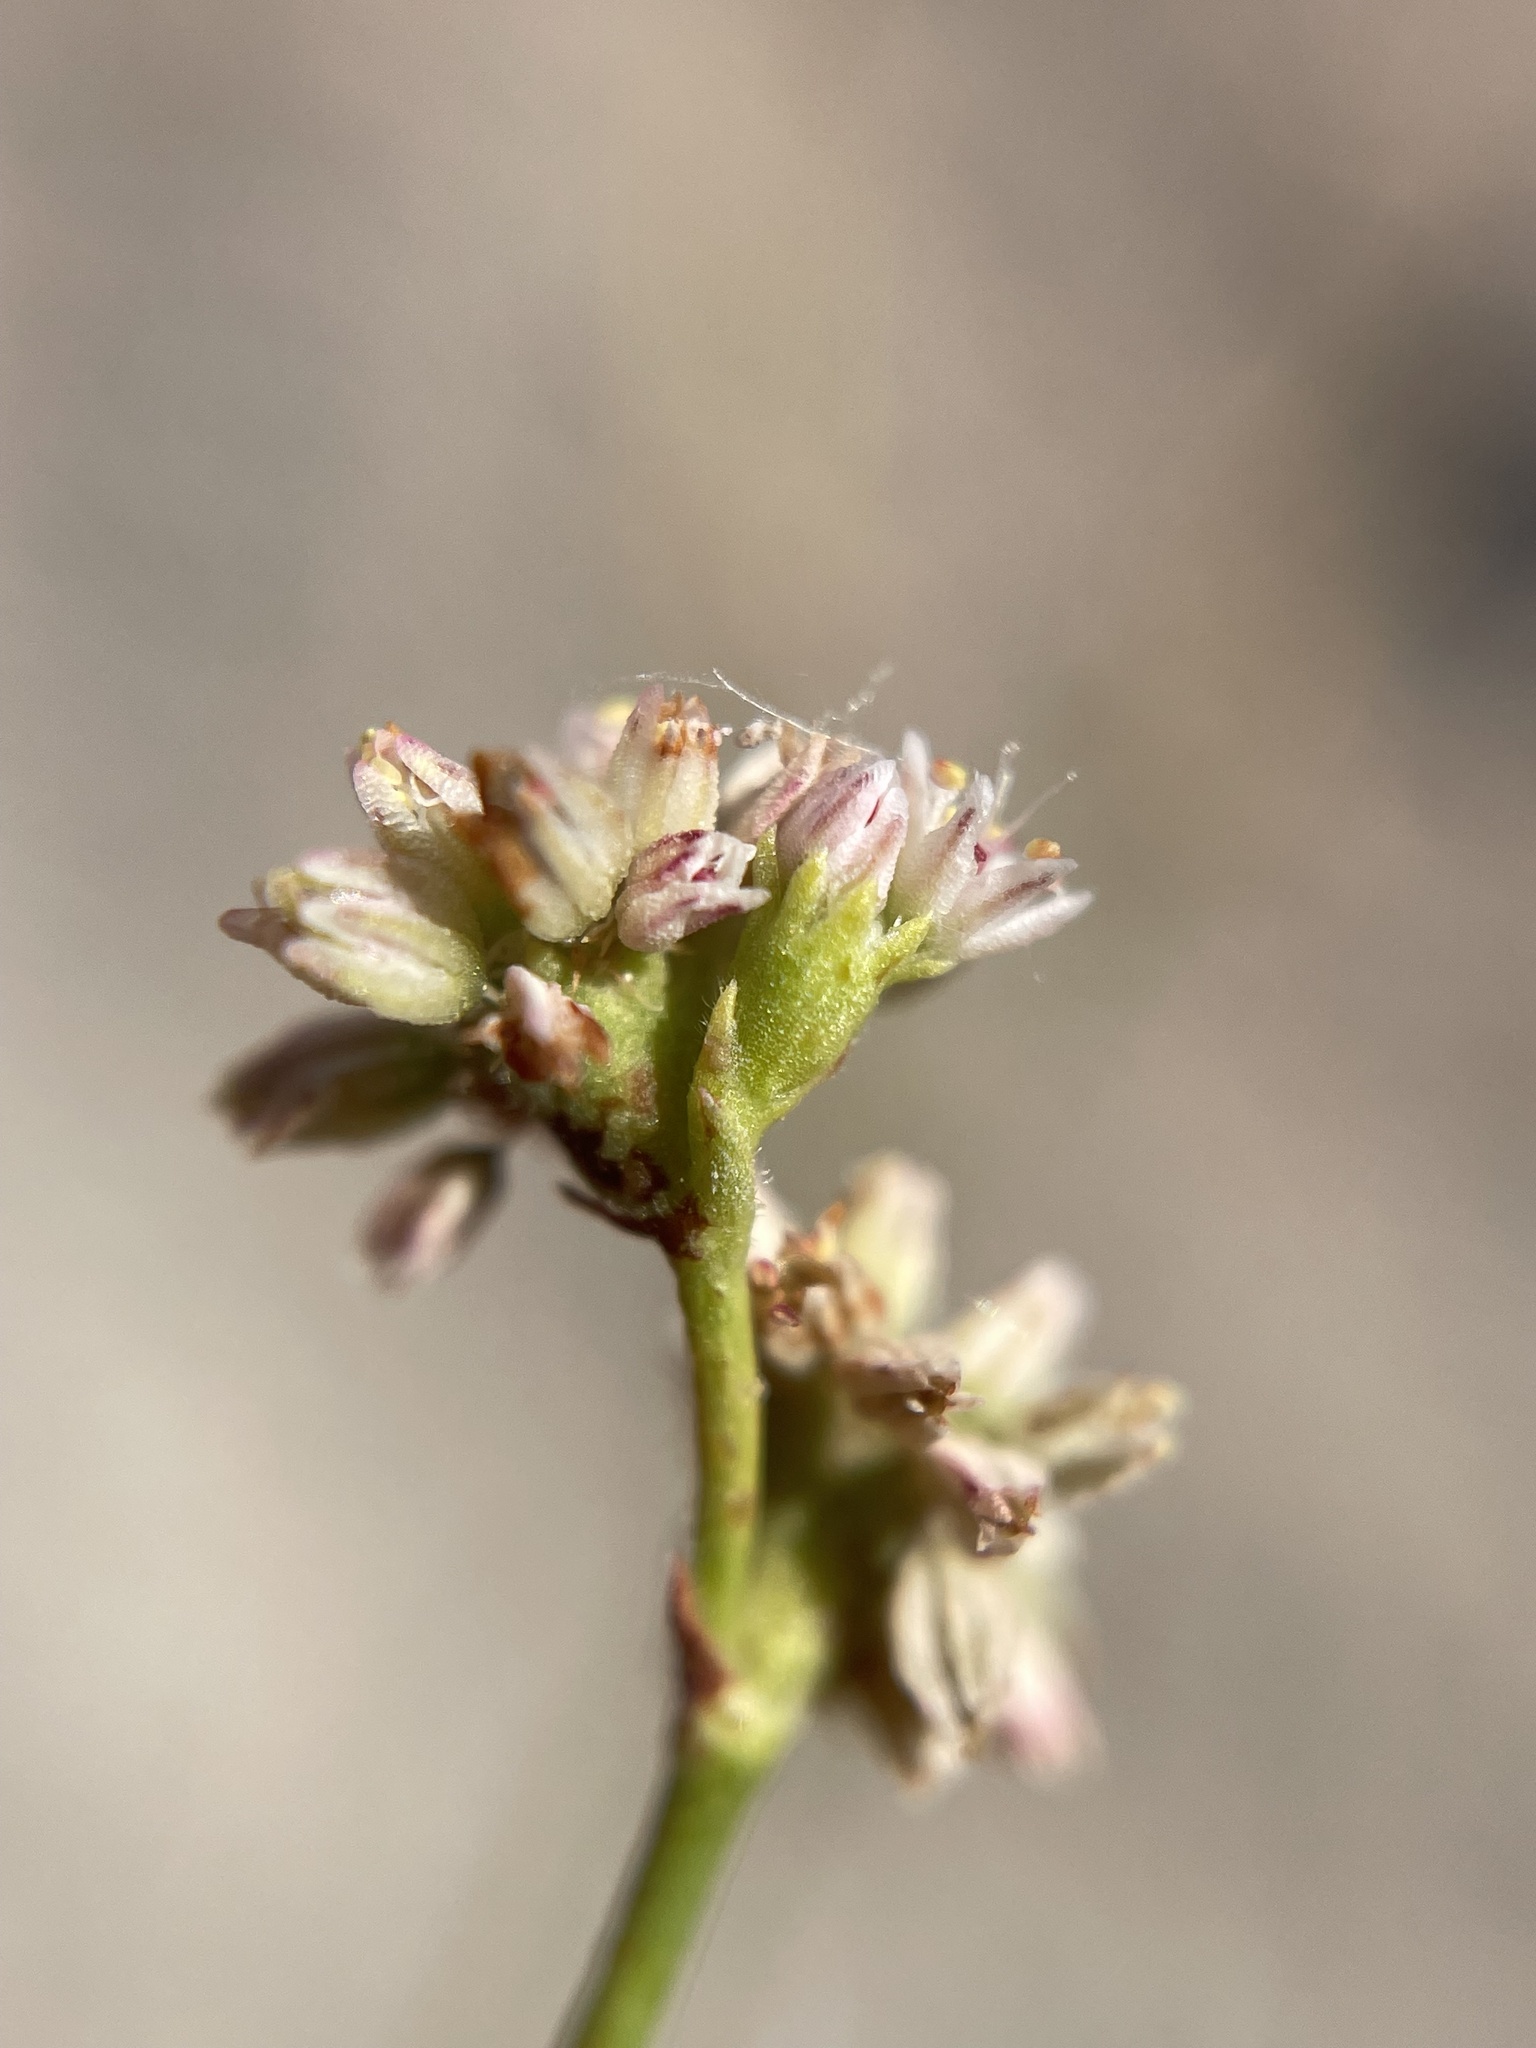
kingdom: Plantae
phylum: Tracheophyta
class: Magnoliopsida
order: Caryophyllales
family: Polygonaceae
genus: Eriogonum
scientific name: Eriogonum lemmonii
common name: Lemmon's wild buckwheat
